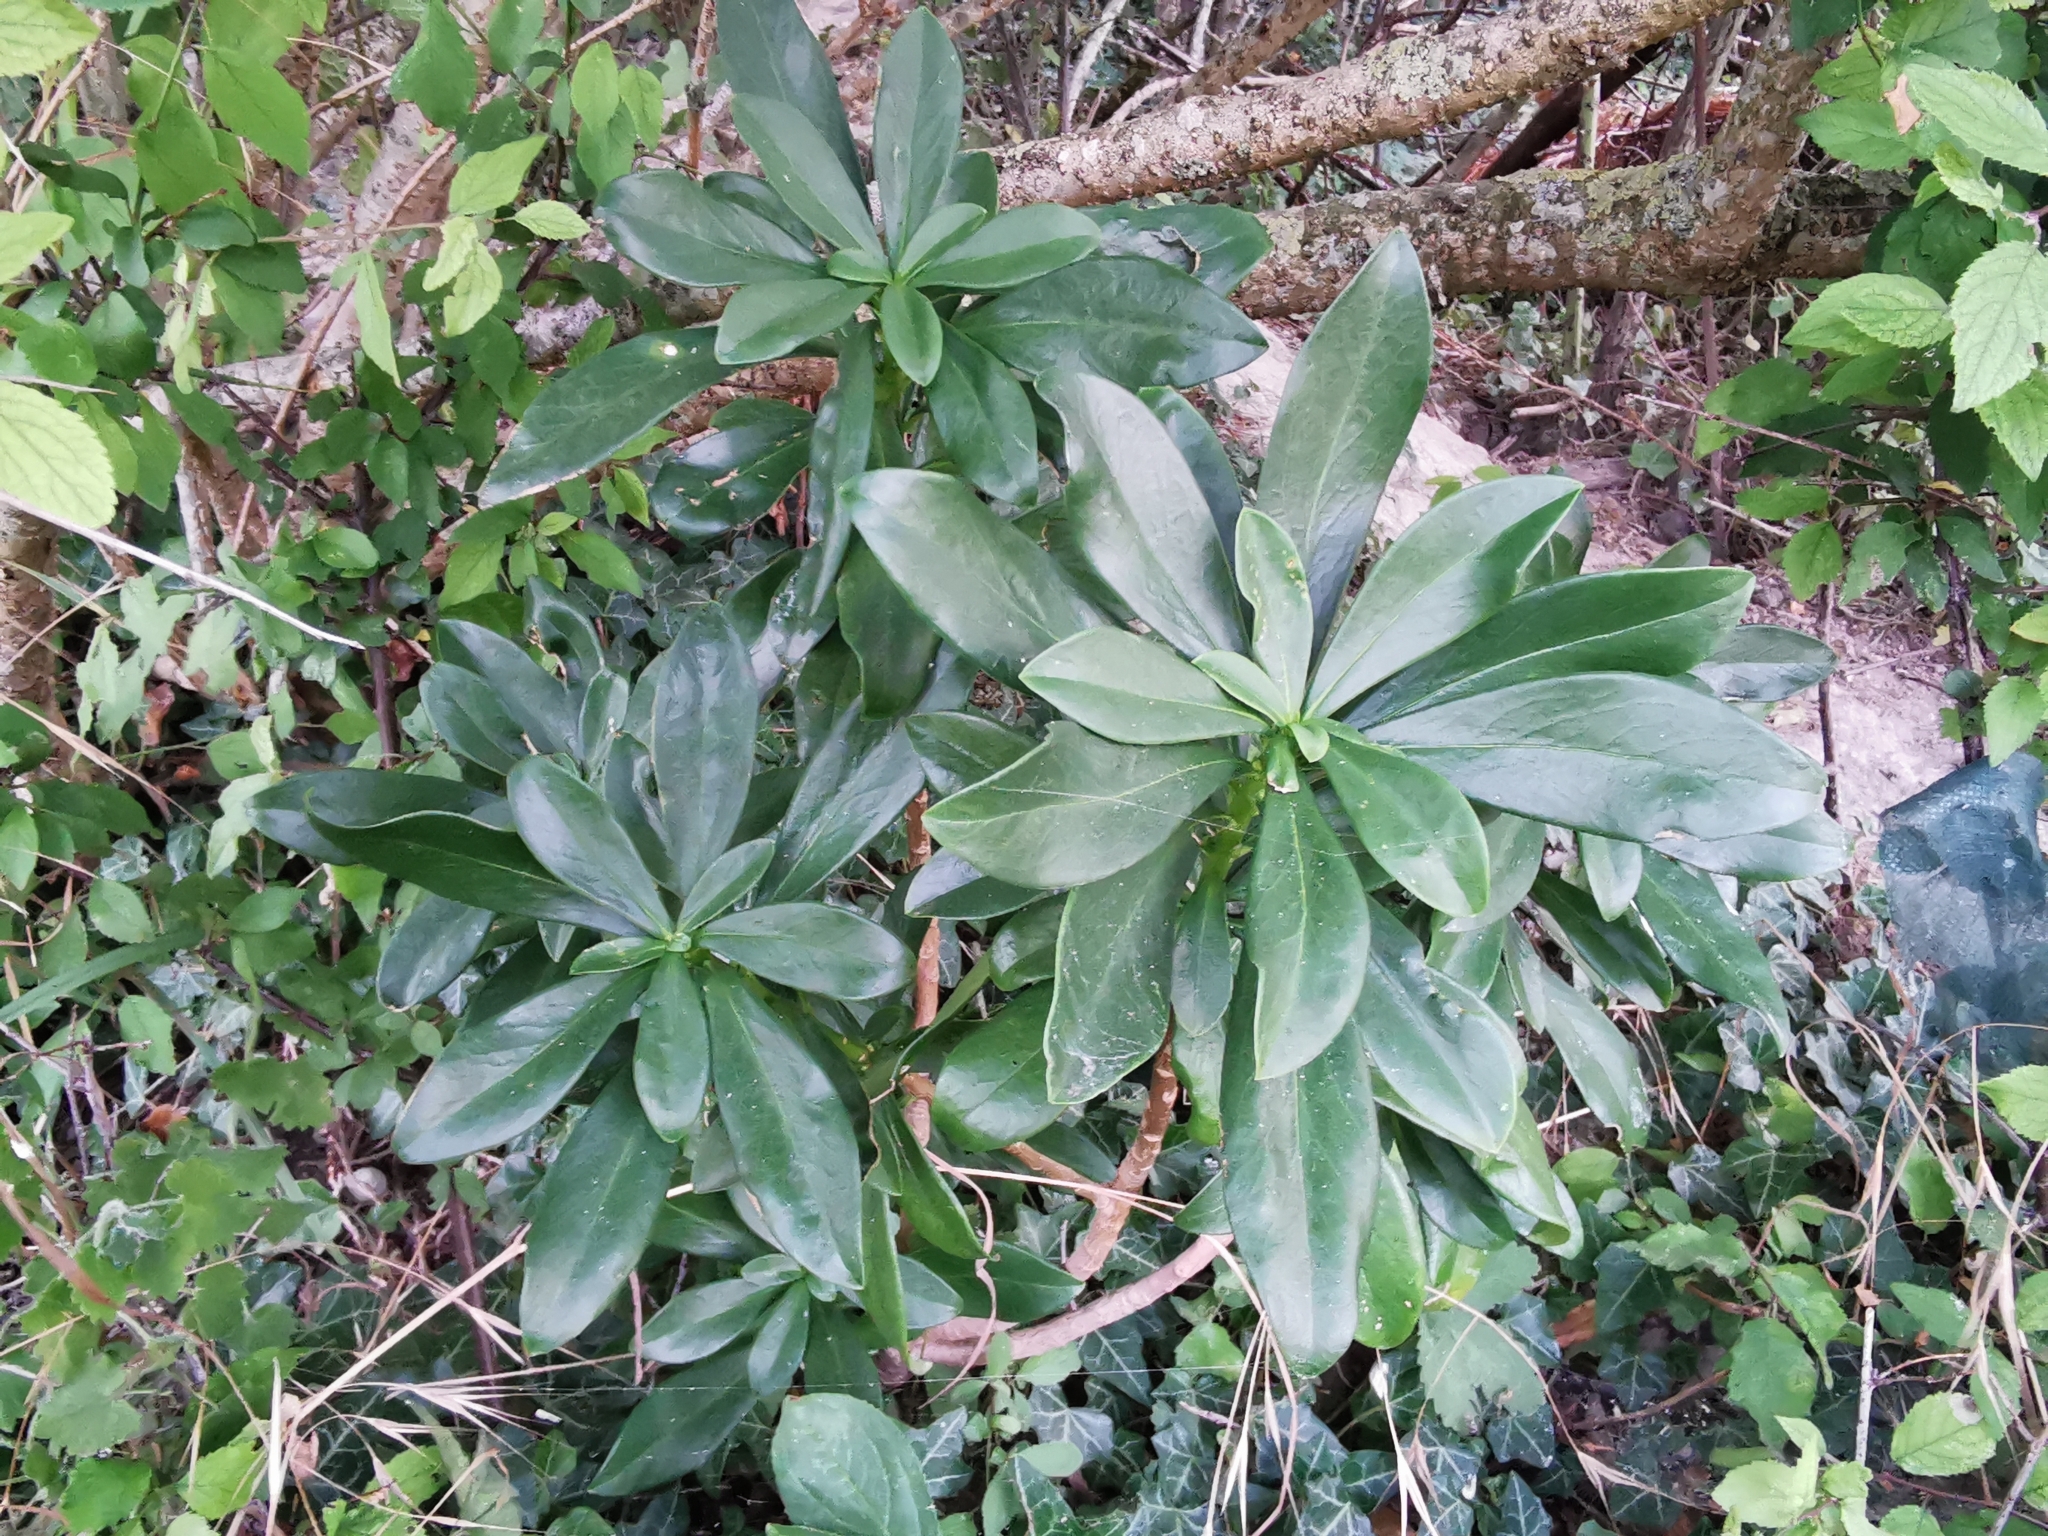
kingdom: Plantae
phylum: Tracheophyta
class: Magnoliopsida
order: Malvales
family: Thymelaeaceae
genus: Daphne
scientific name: Daphne laureola
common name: Spurge-laurel
